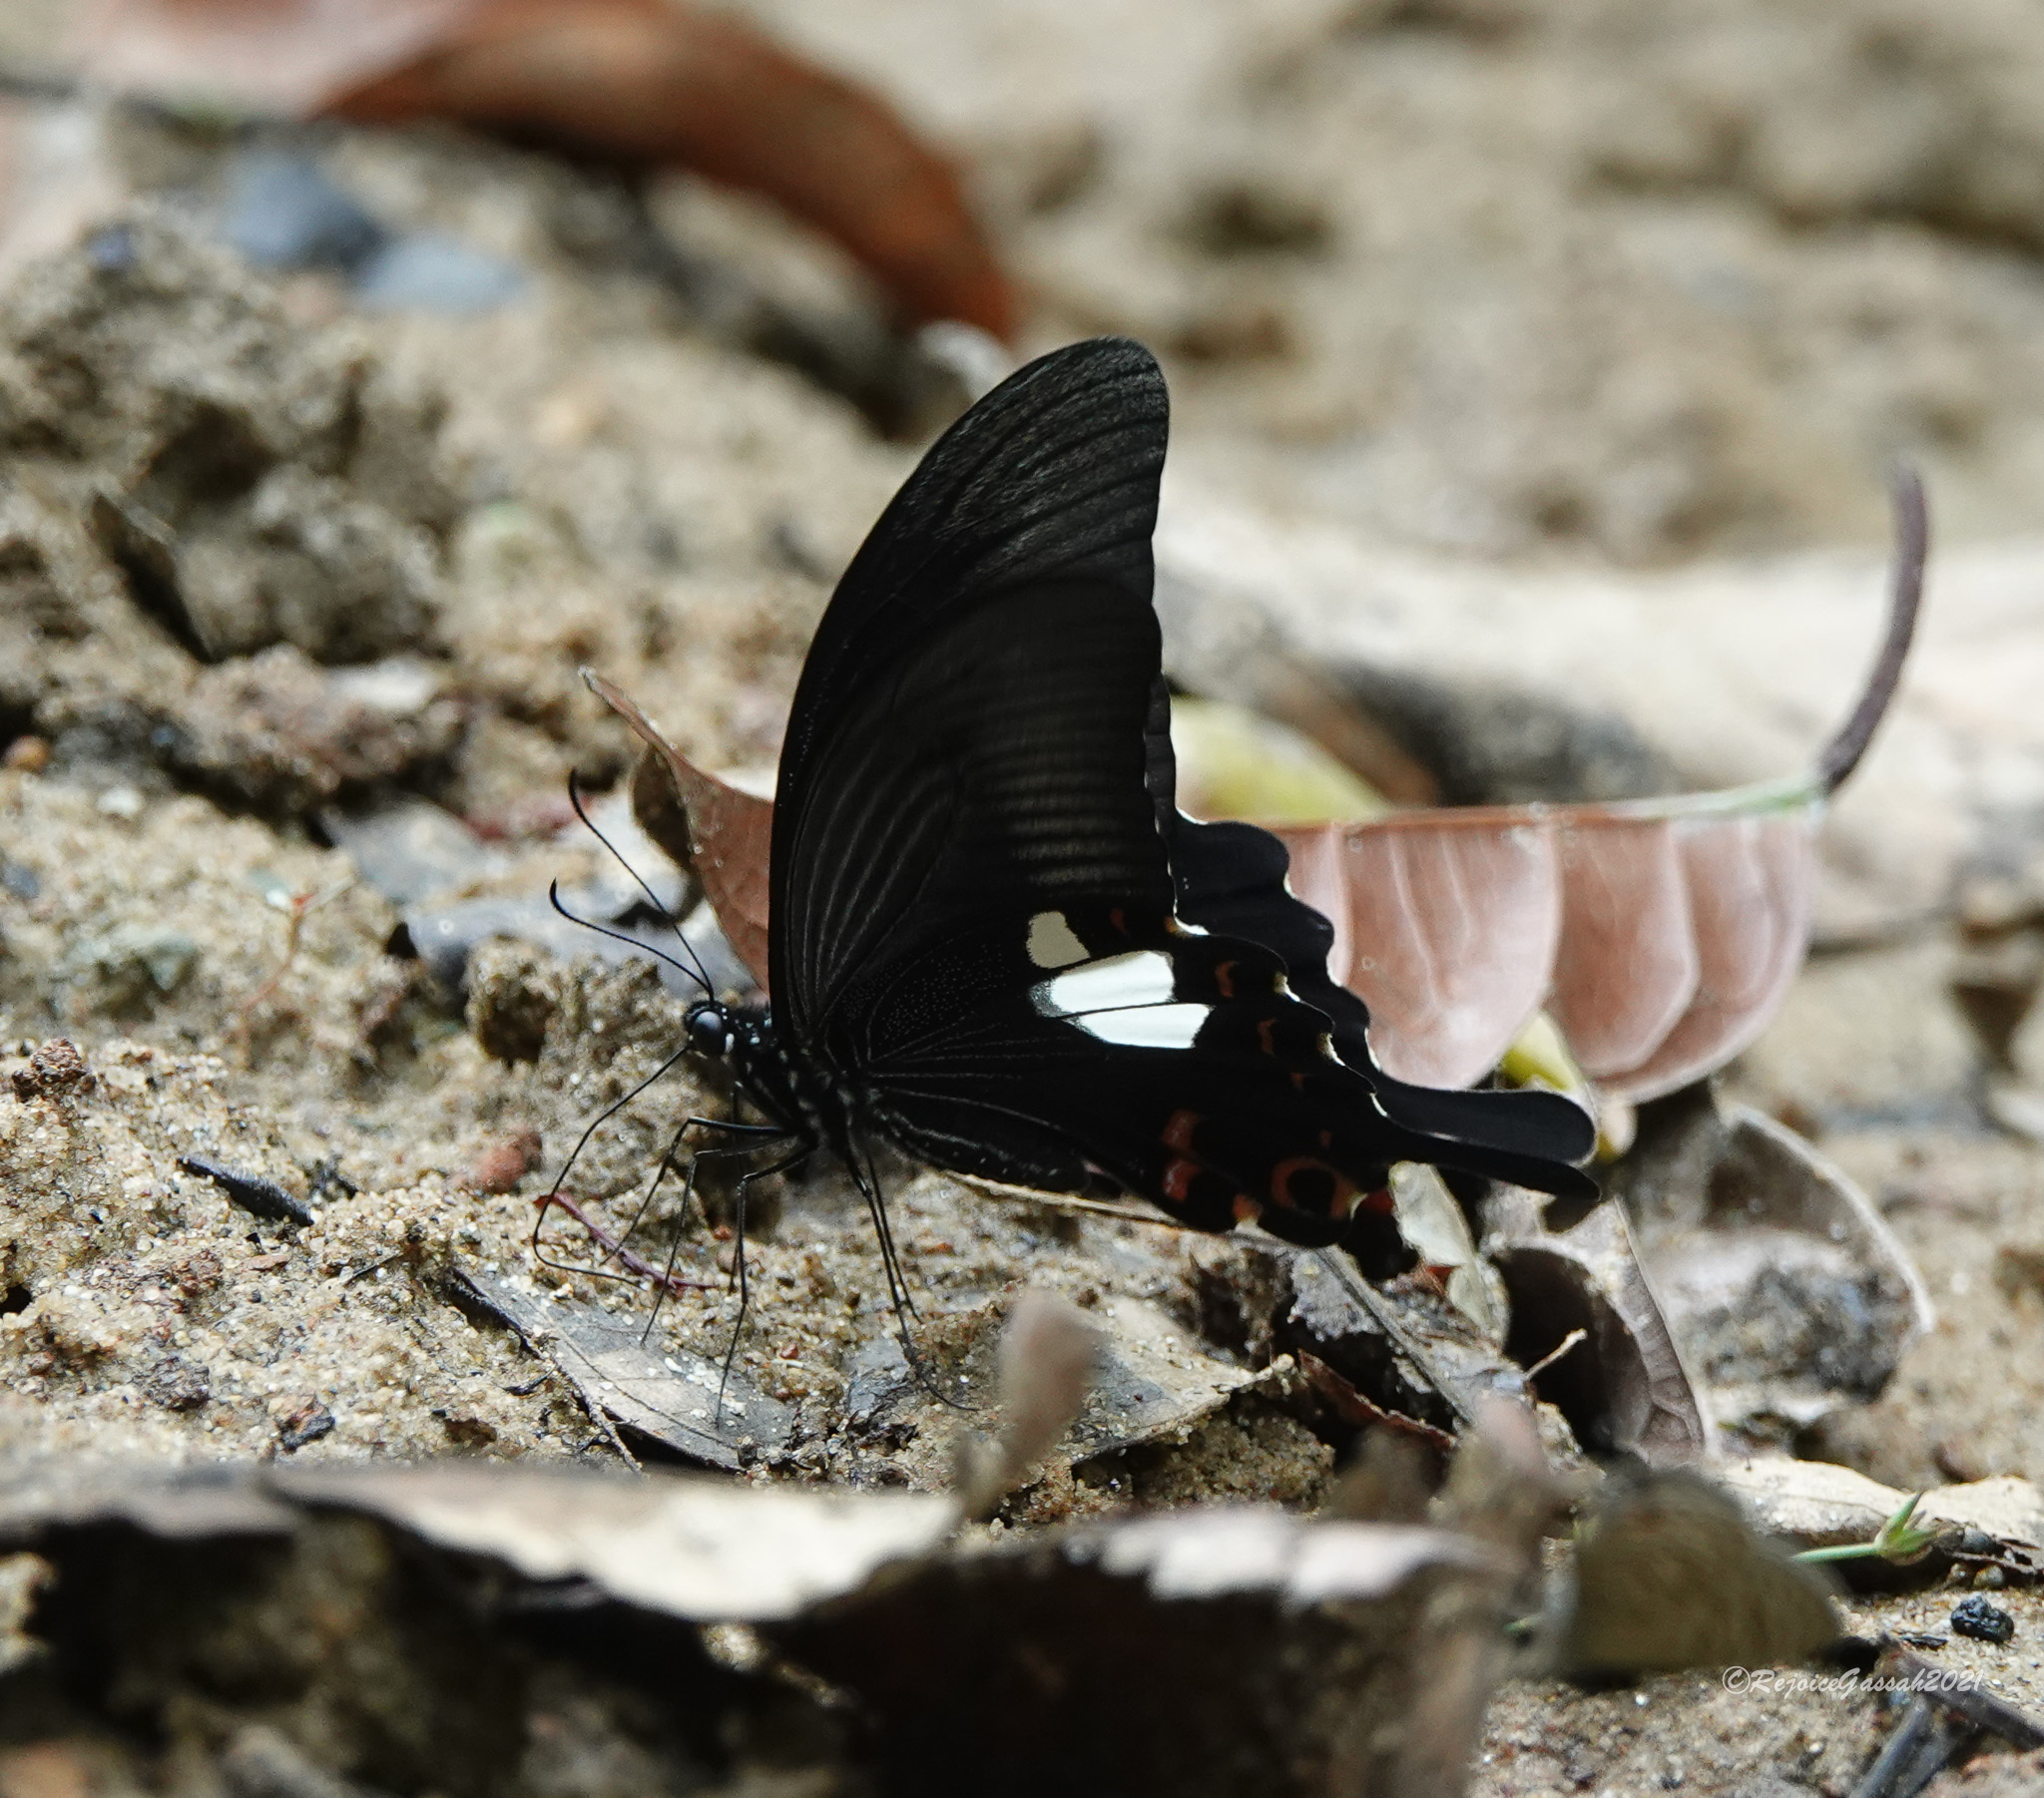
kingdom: Animalia
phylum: Arthropoda
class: Insecta
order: Lepidoptera
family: Papilionidae
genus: Papilio
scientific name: Papilio helenus
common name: Red helen
